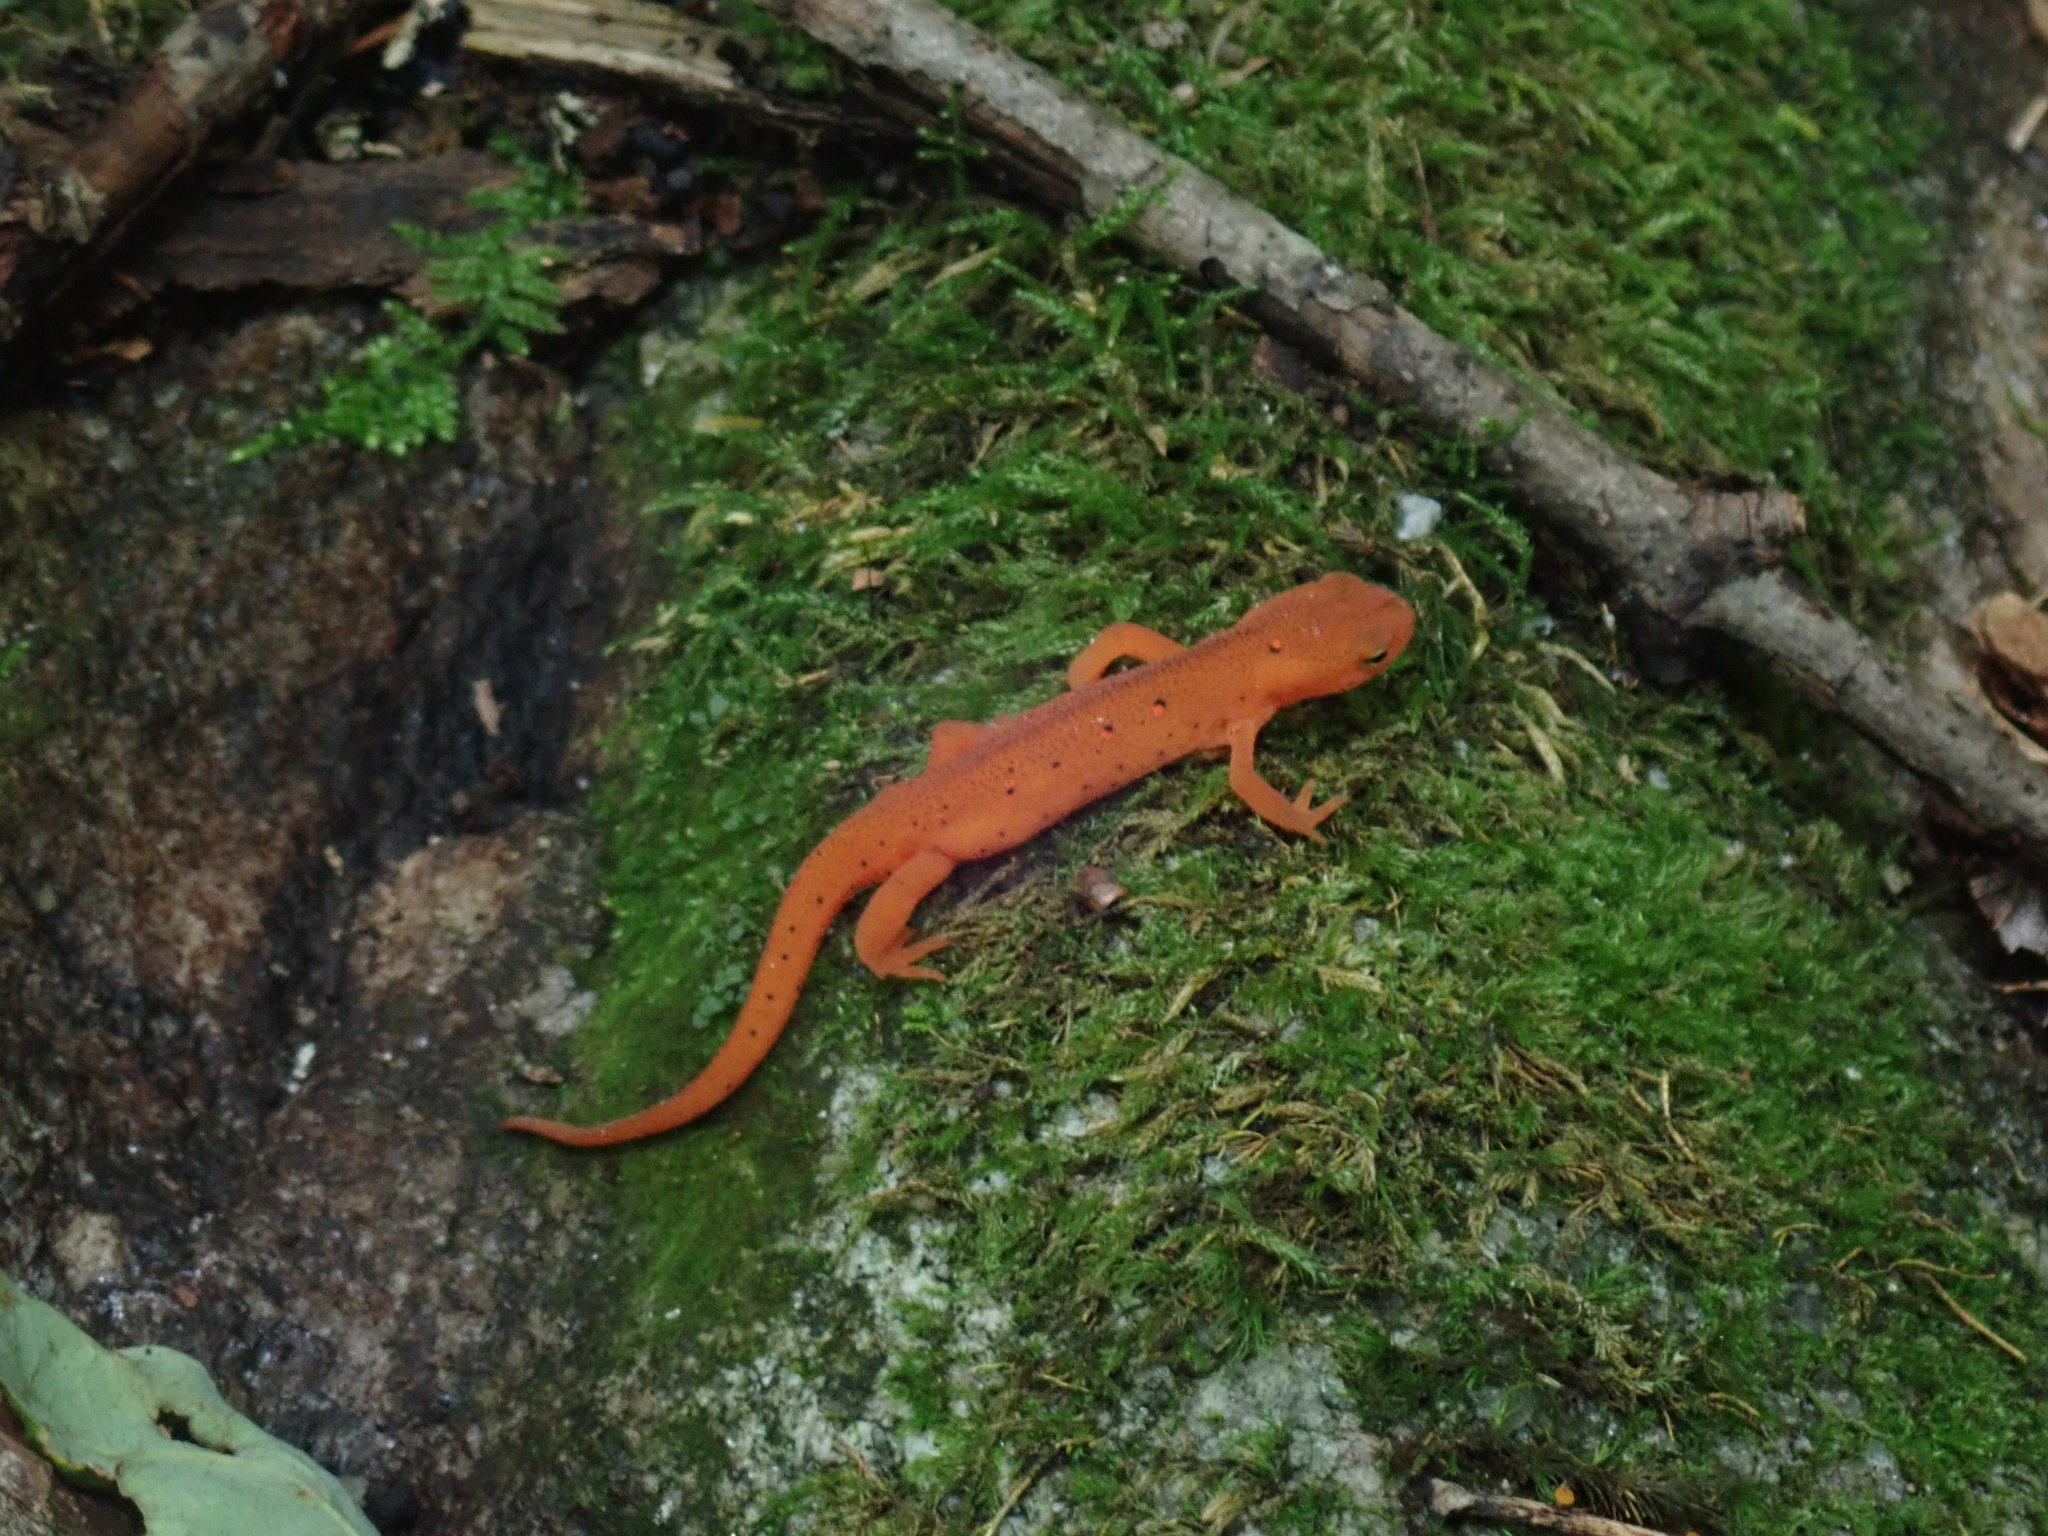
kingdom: Animalia
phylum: Chordata
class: Amphibia
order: Caudata
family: Salamandridae
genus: Notophthalmus
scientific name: Notophthalmus viridescens
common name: Eastern newt
